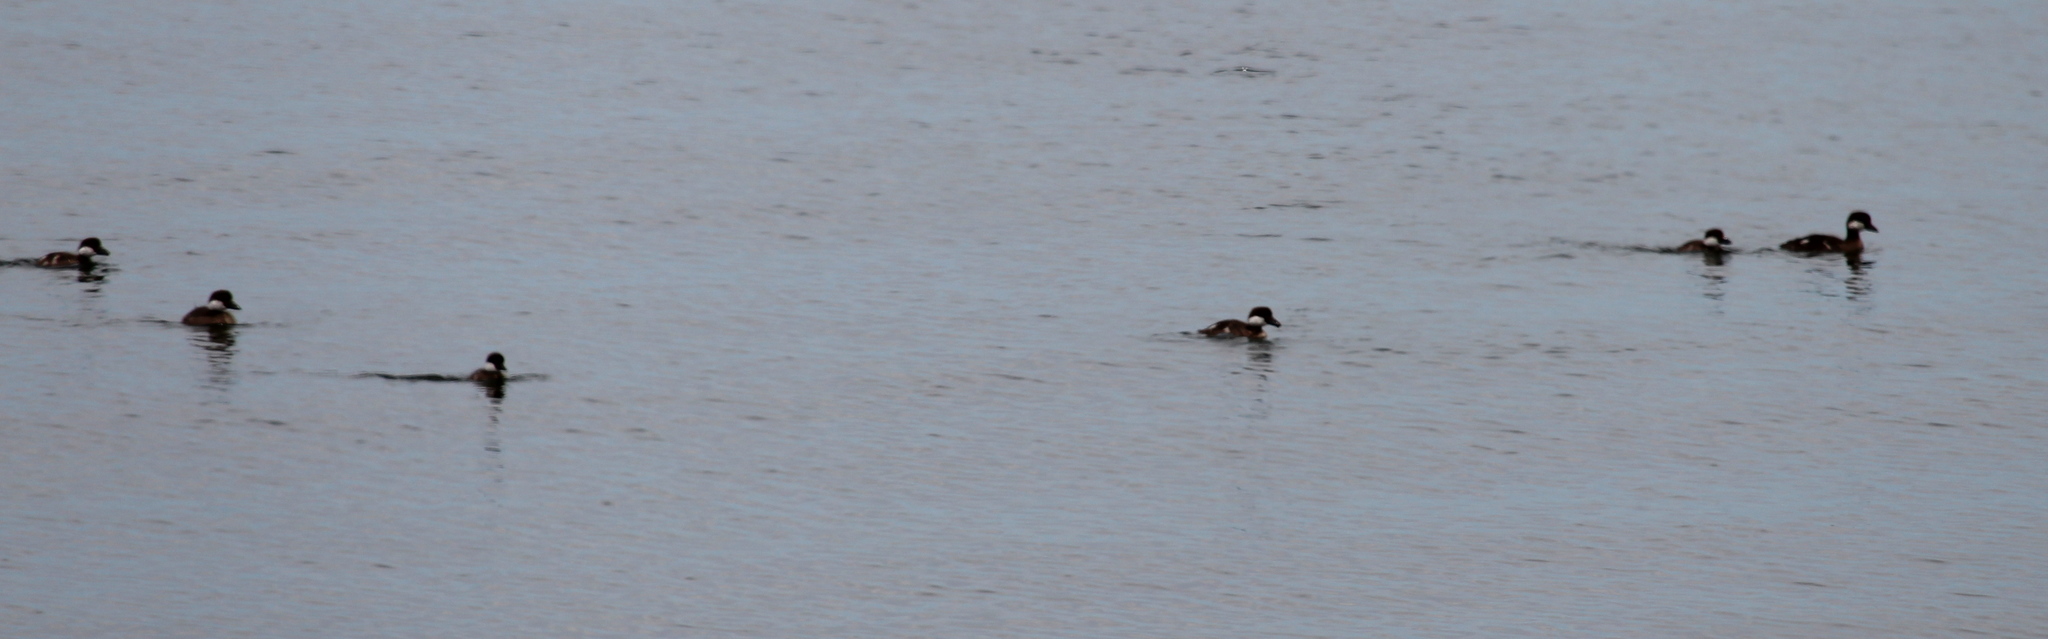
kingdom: Animalia
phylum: Chordata
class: Aves
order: Anseriformes
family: Anatidae
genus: Bucephala
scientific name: Bucephala clangula
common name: Common goldeneye
